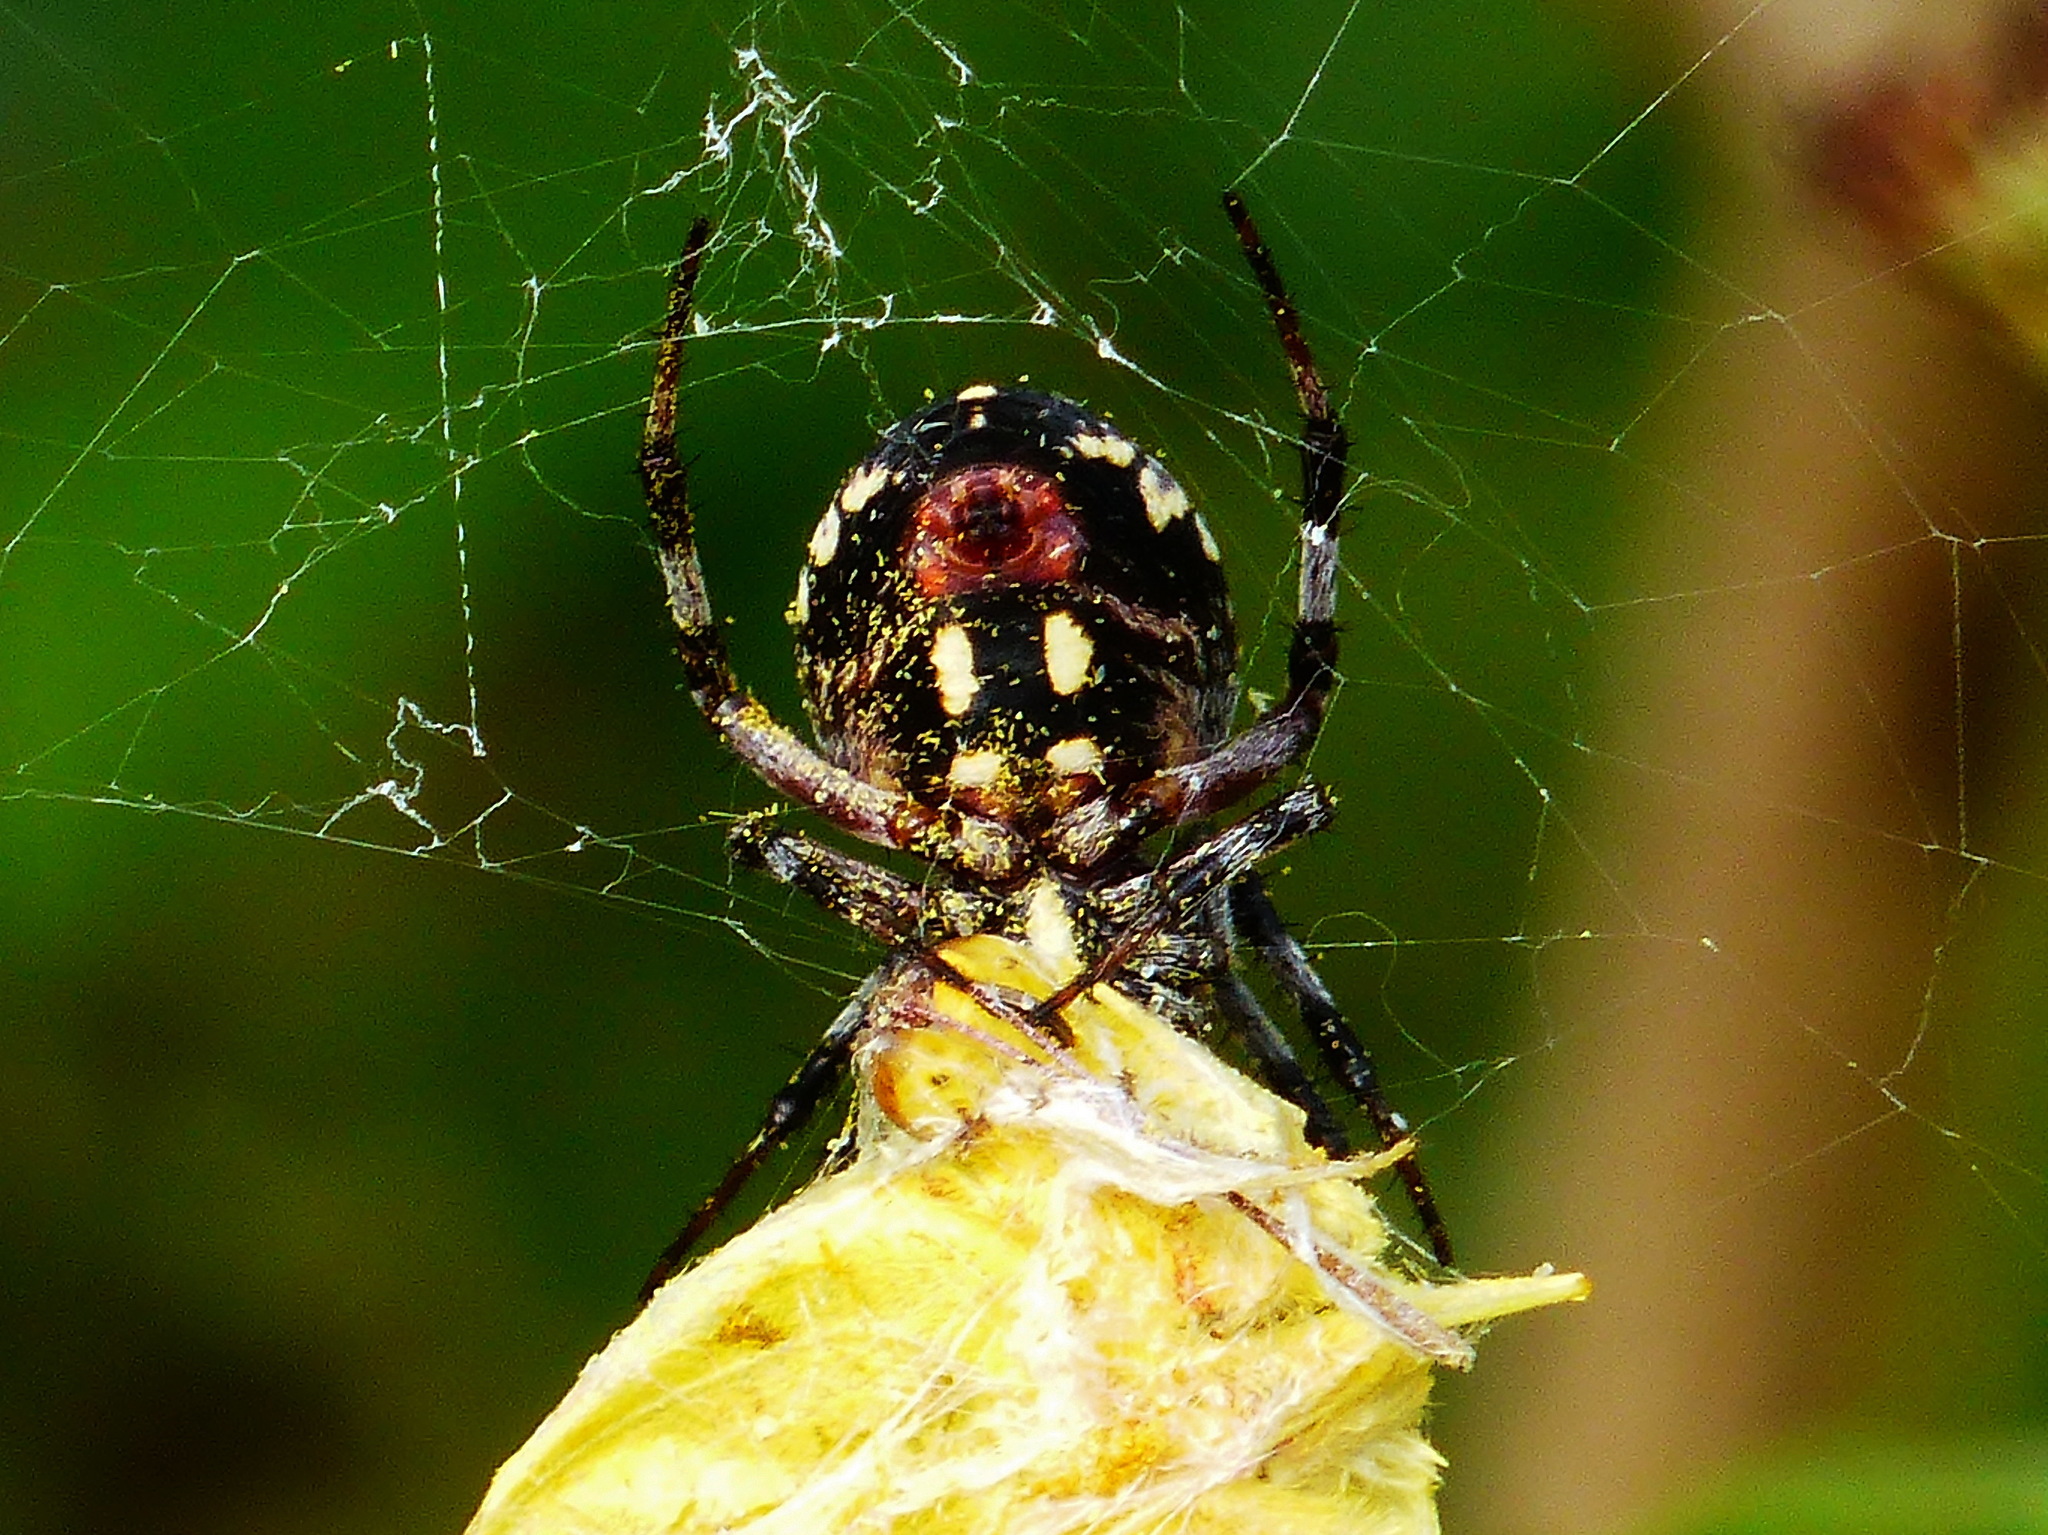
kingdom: Animalia
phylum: Arthropoda
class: Arachnida
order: Araneae
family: Araneidae
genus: Neoscona
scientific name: Neoscona oaxacensis
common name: Orb weavers
